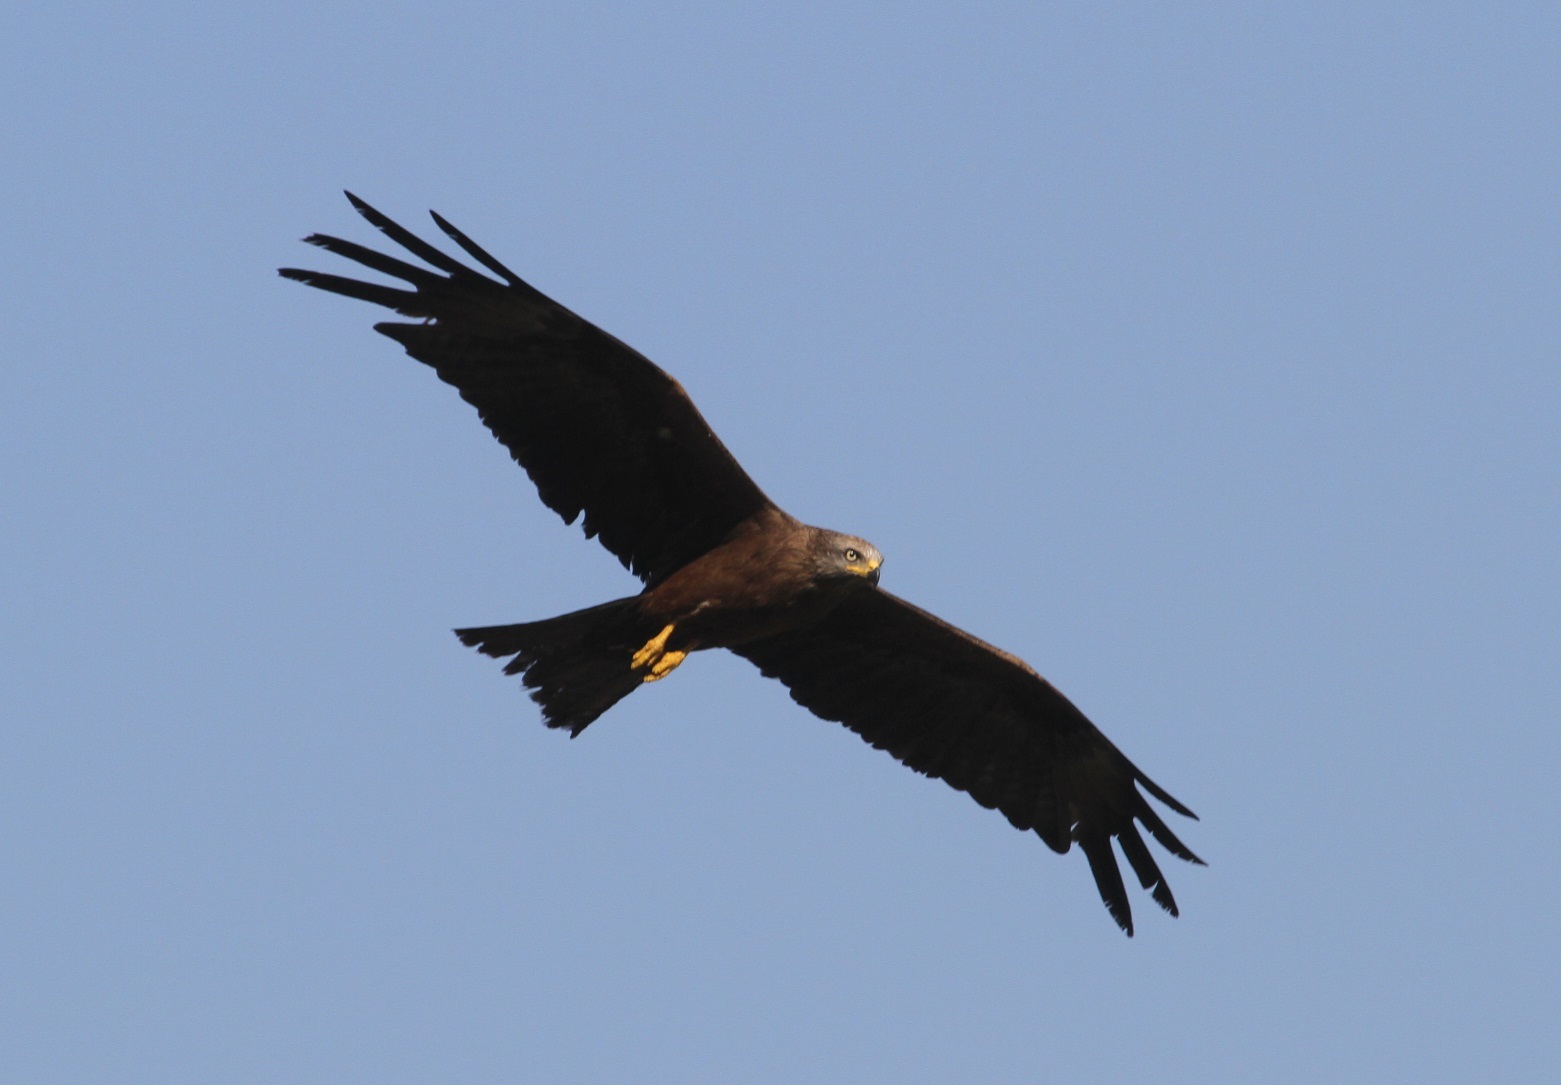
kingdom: Animalia
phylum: Chordata
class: Aves
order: Accipitriformes
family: Accipitridae
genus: Milvus
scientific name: Milvus migrans
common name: Black kite
